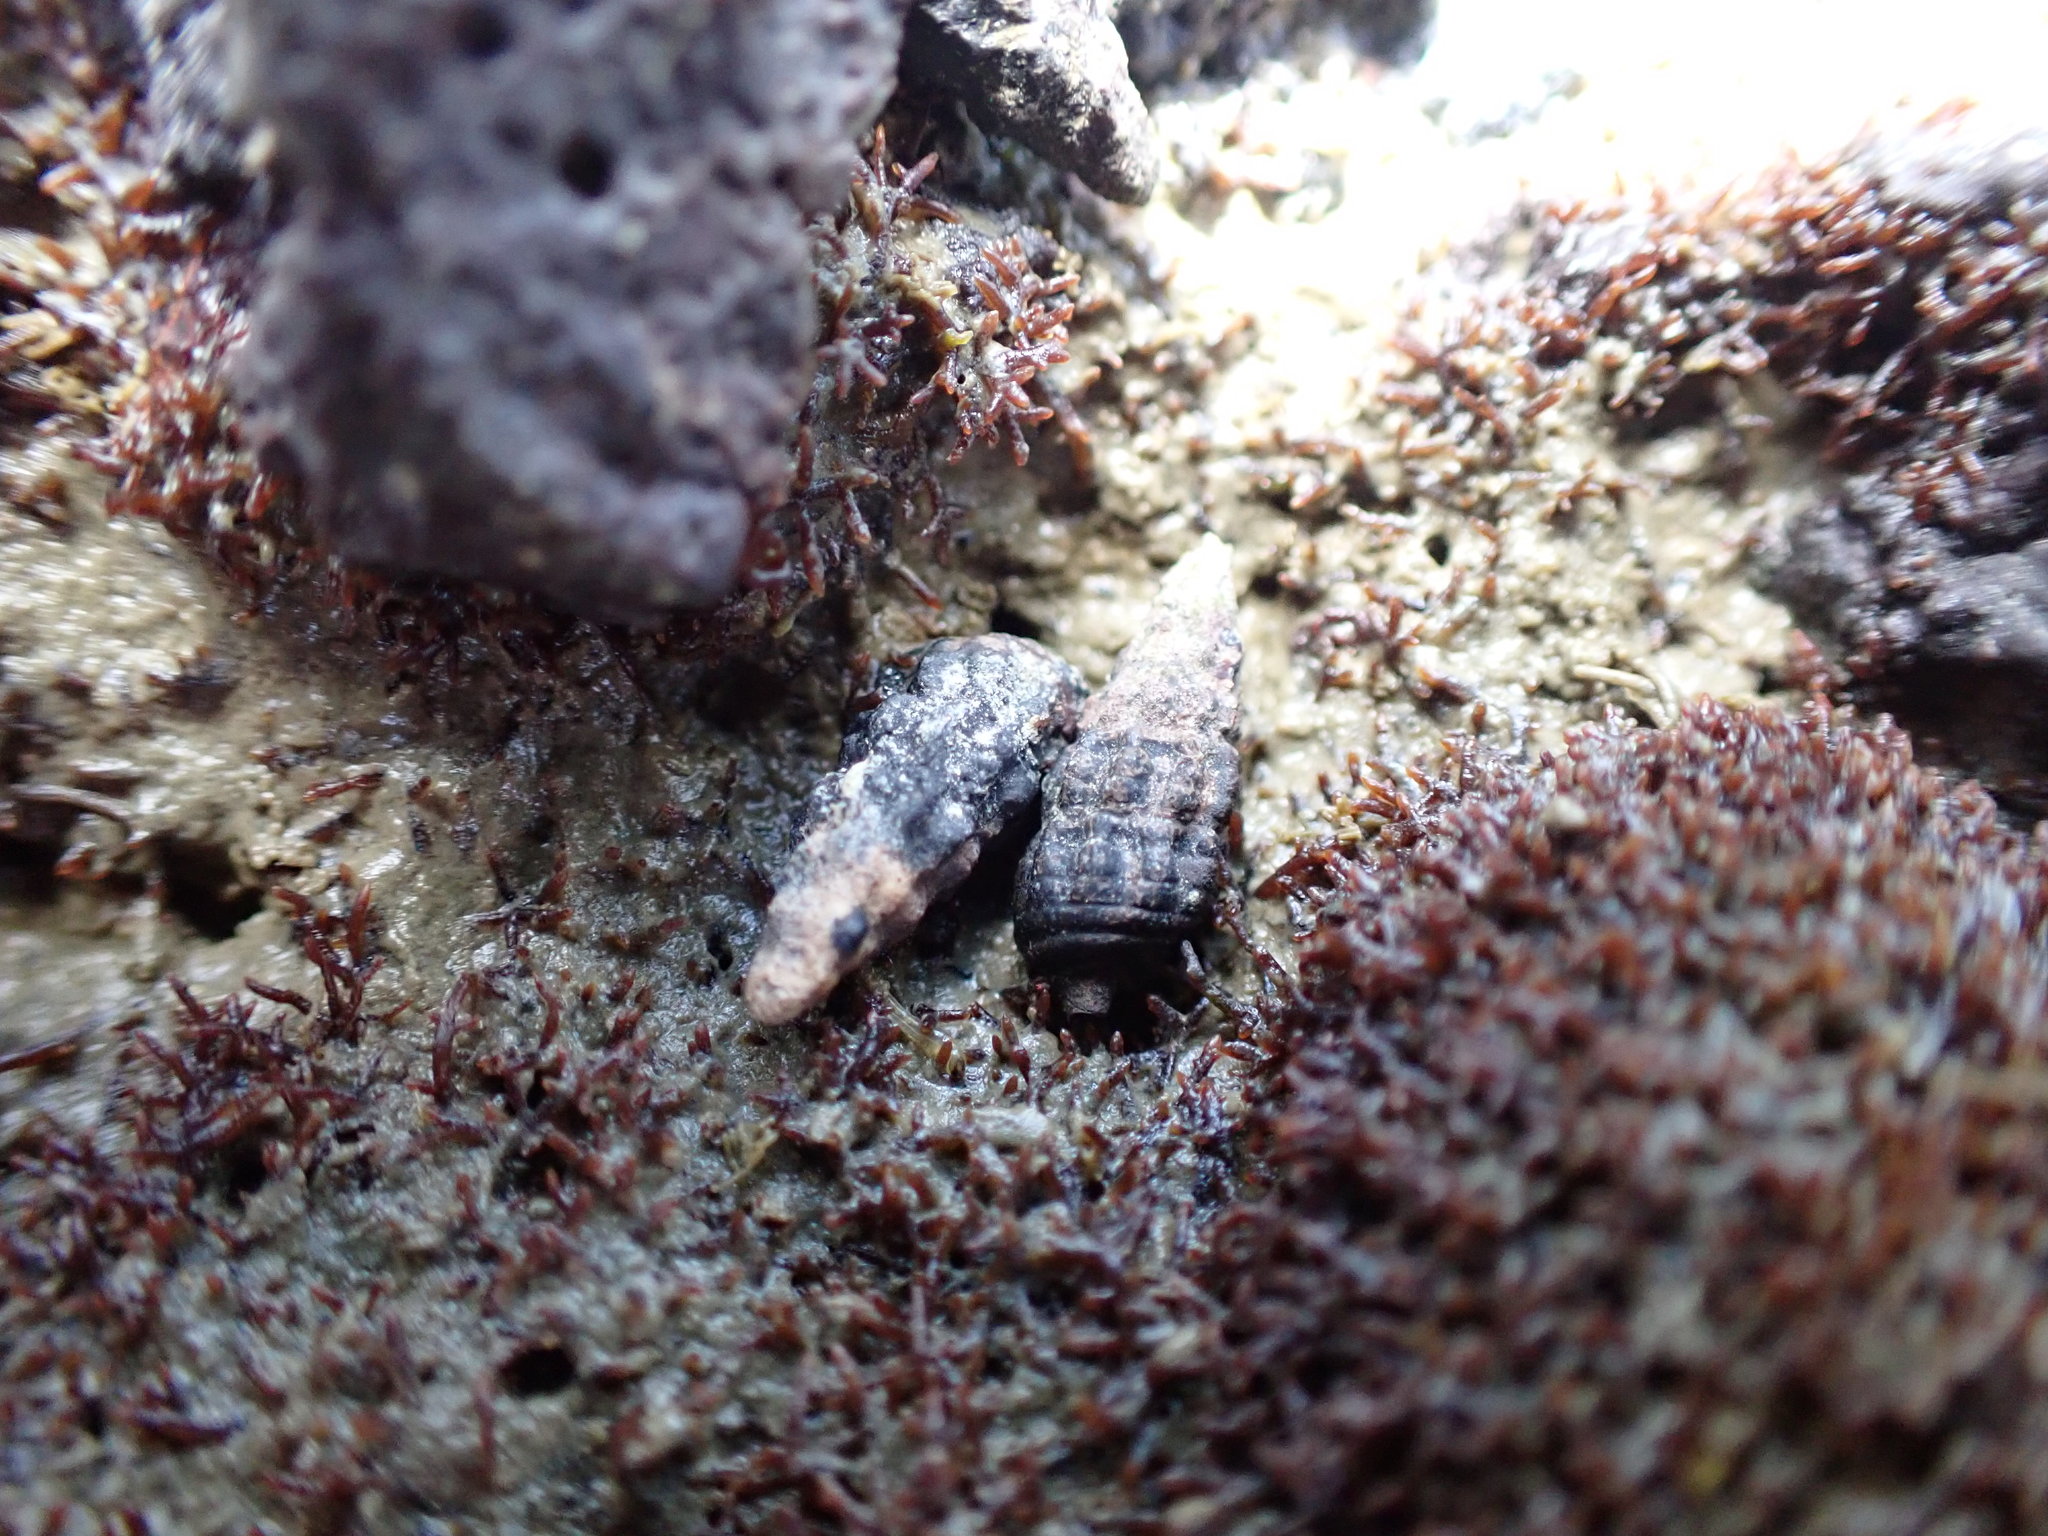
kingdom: Animalia
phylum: Mollusca
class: Gastropoda
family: Batillariidae
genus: Zeacumantus
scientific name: Zeacumantus subcarinatus
